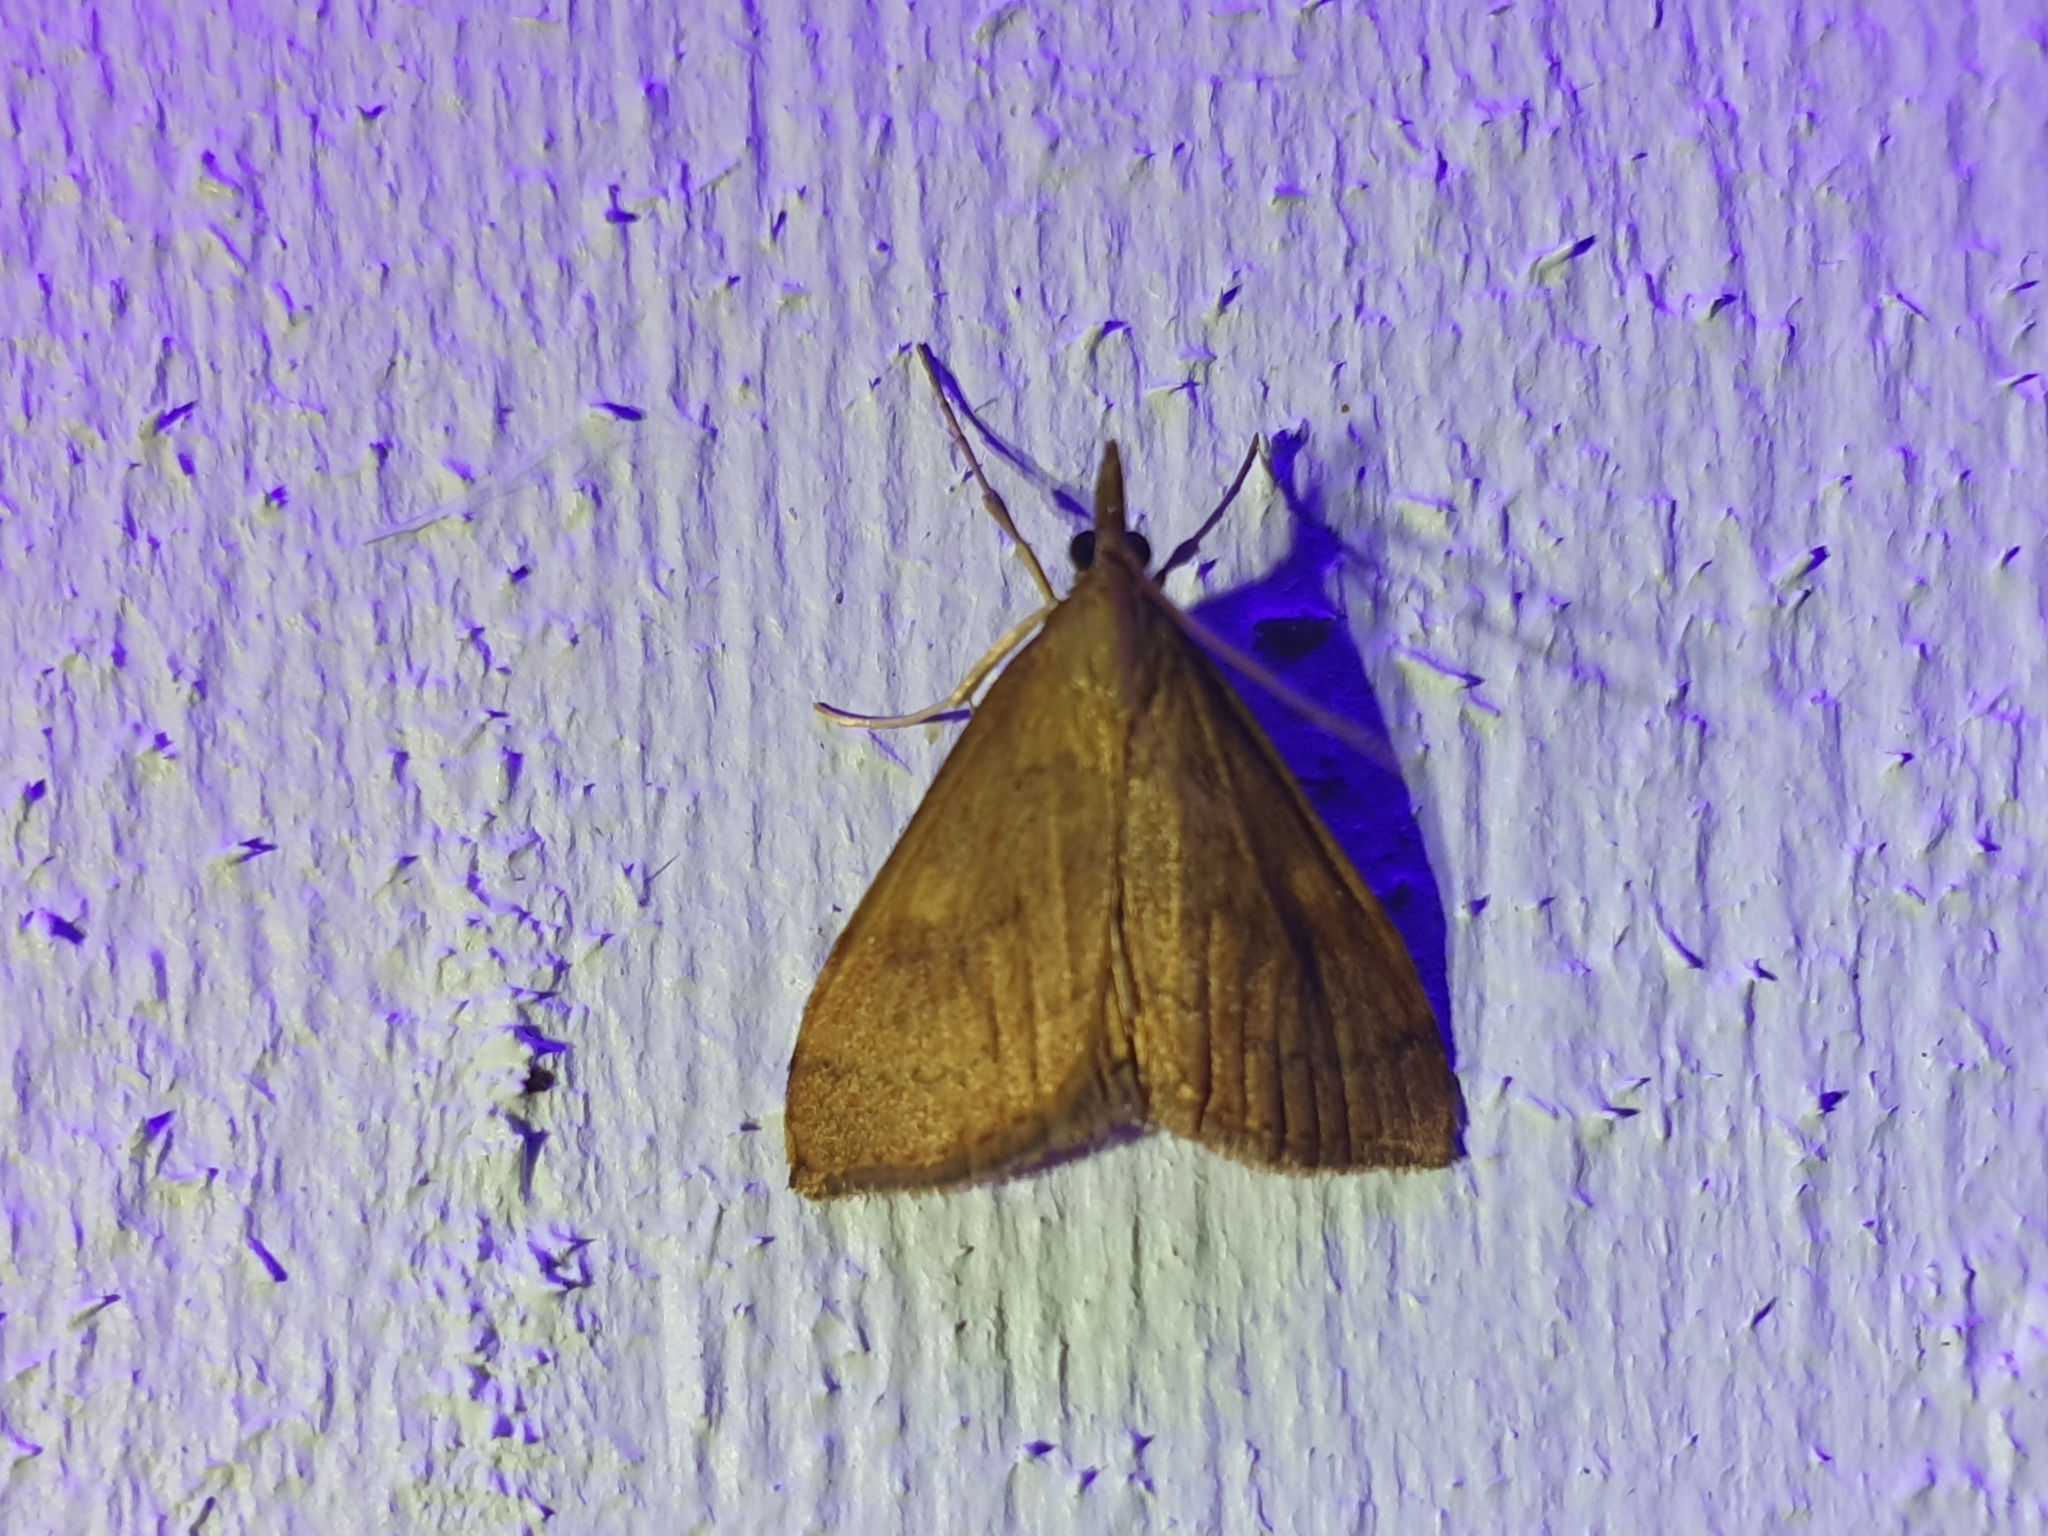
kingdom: Animalia
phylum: Arthropoda
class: Insecta
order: Lepidoptera
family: Crambidae
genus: Udea
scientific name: Udea Mnesictena flavidalis
